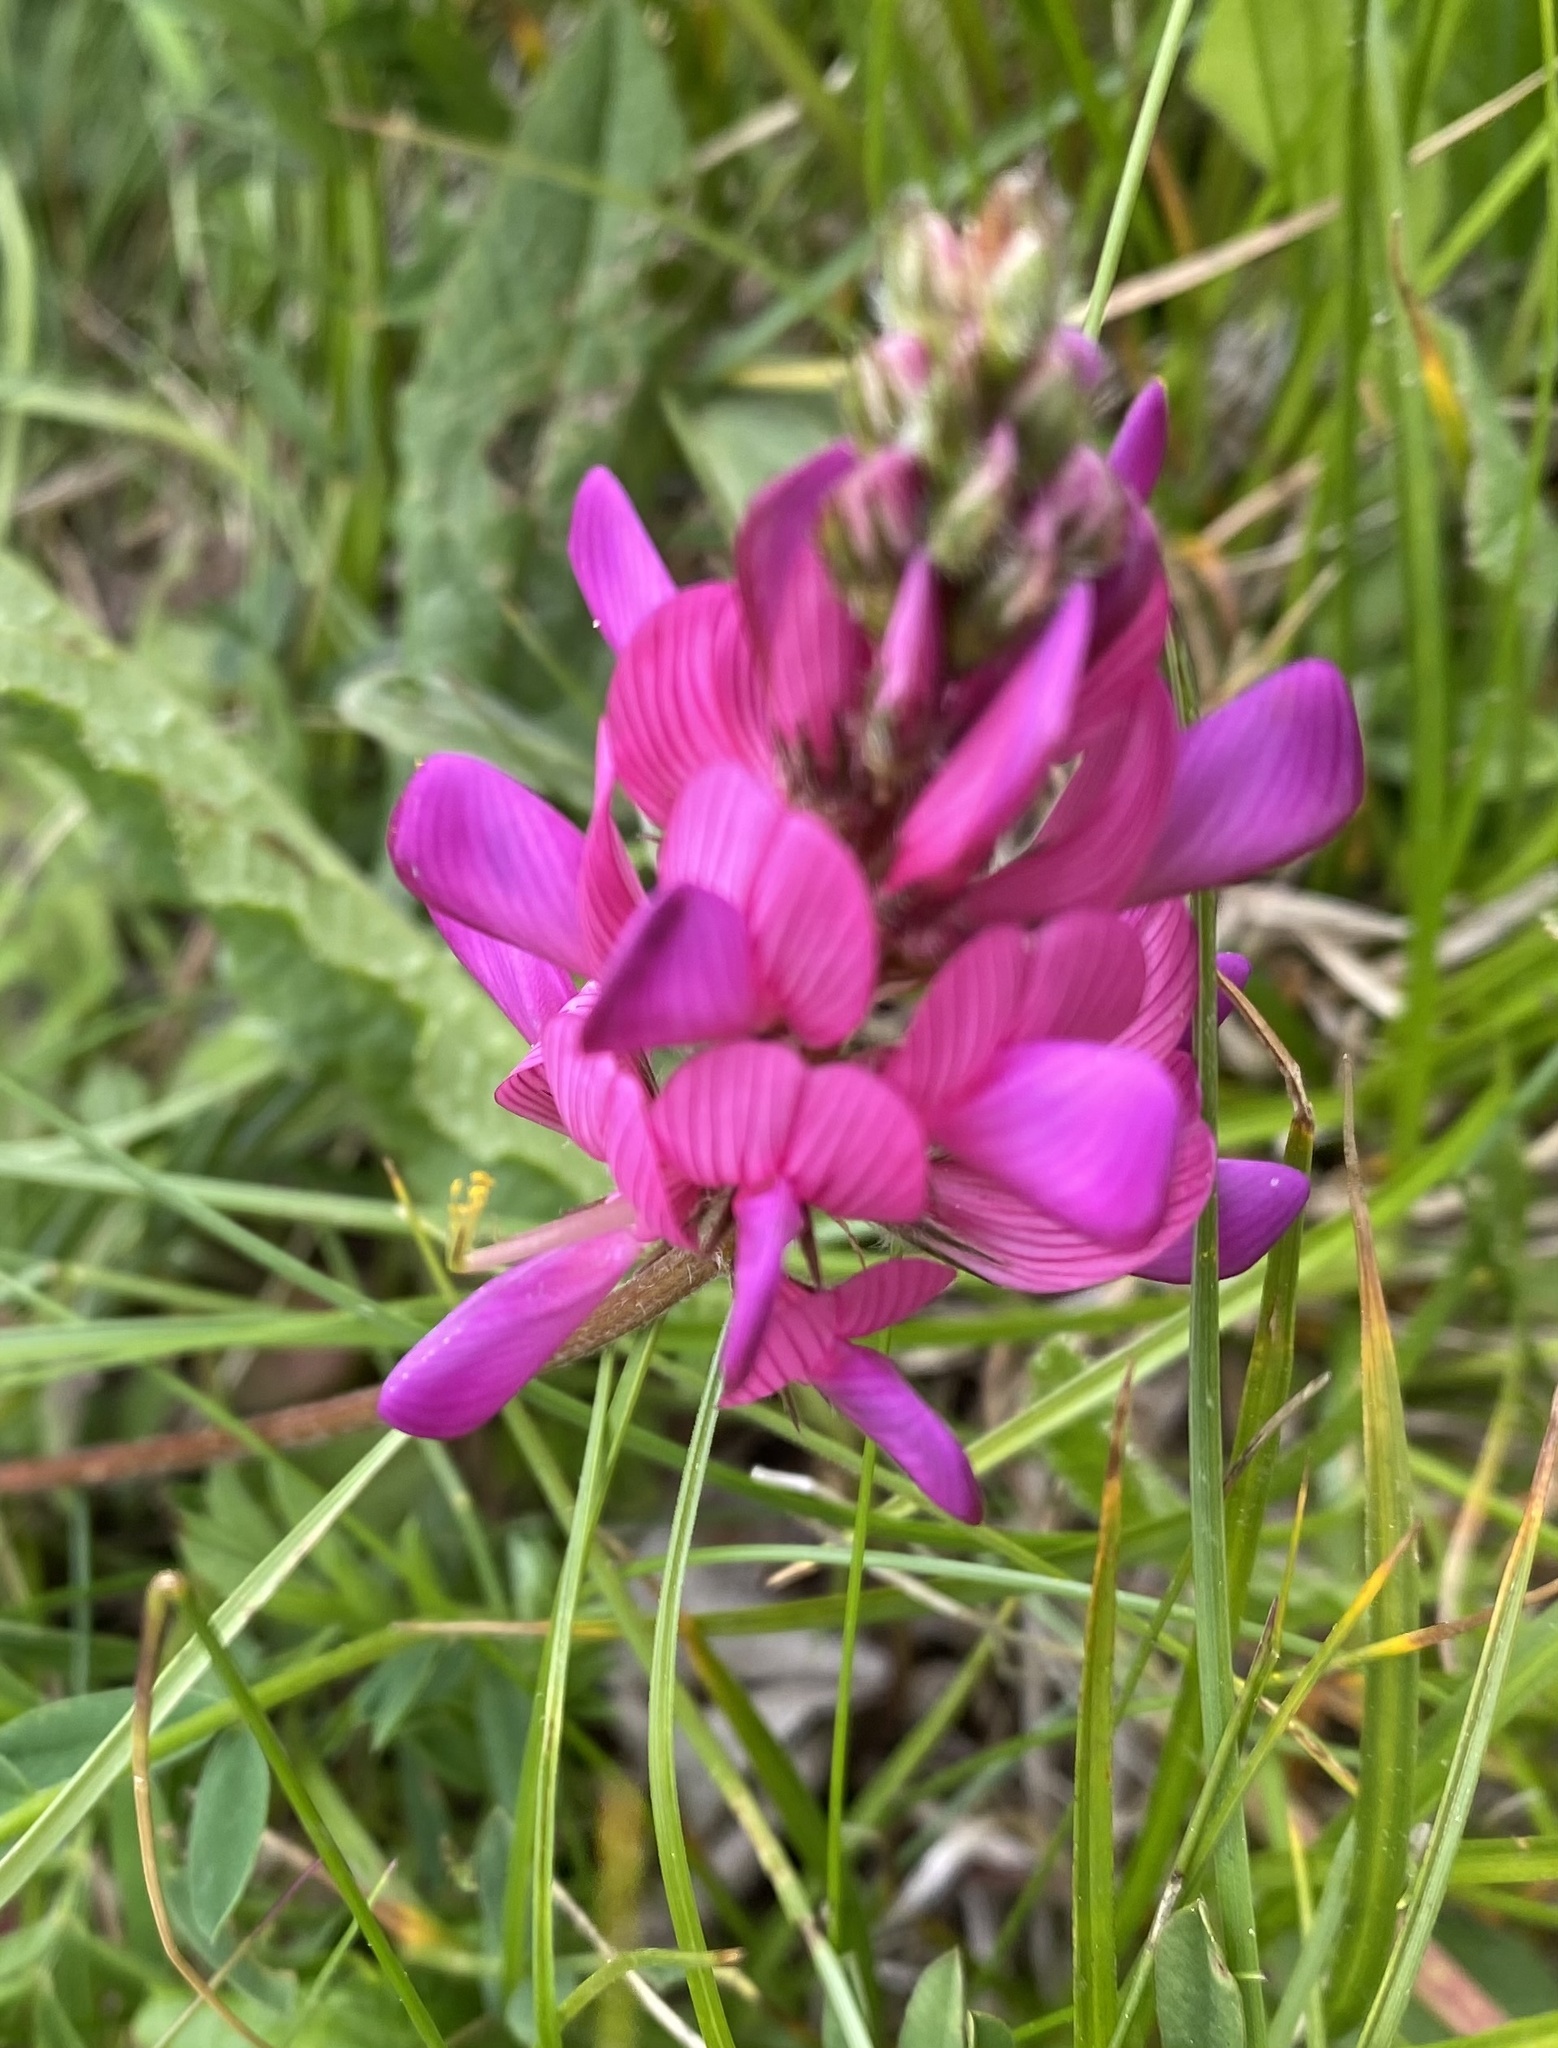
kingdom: Plantae
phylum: Tracheophyta
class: Magnoliopsida
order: Fabales
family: Fabaceae
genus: Onobrychis
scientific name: Onobrychis biebersteinii
